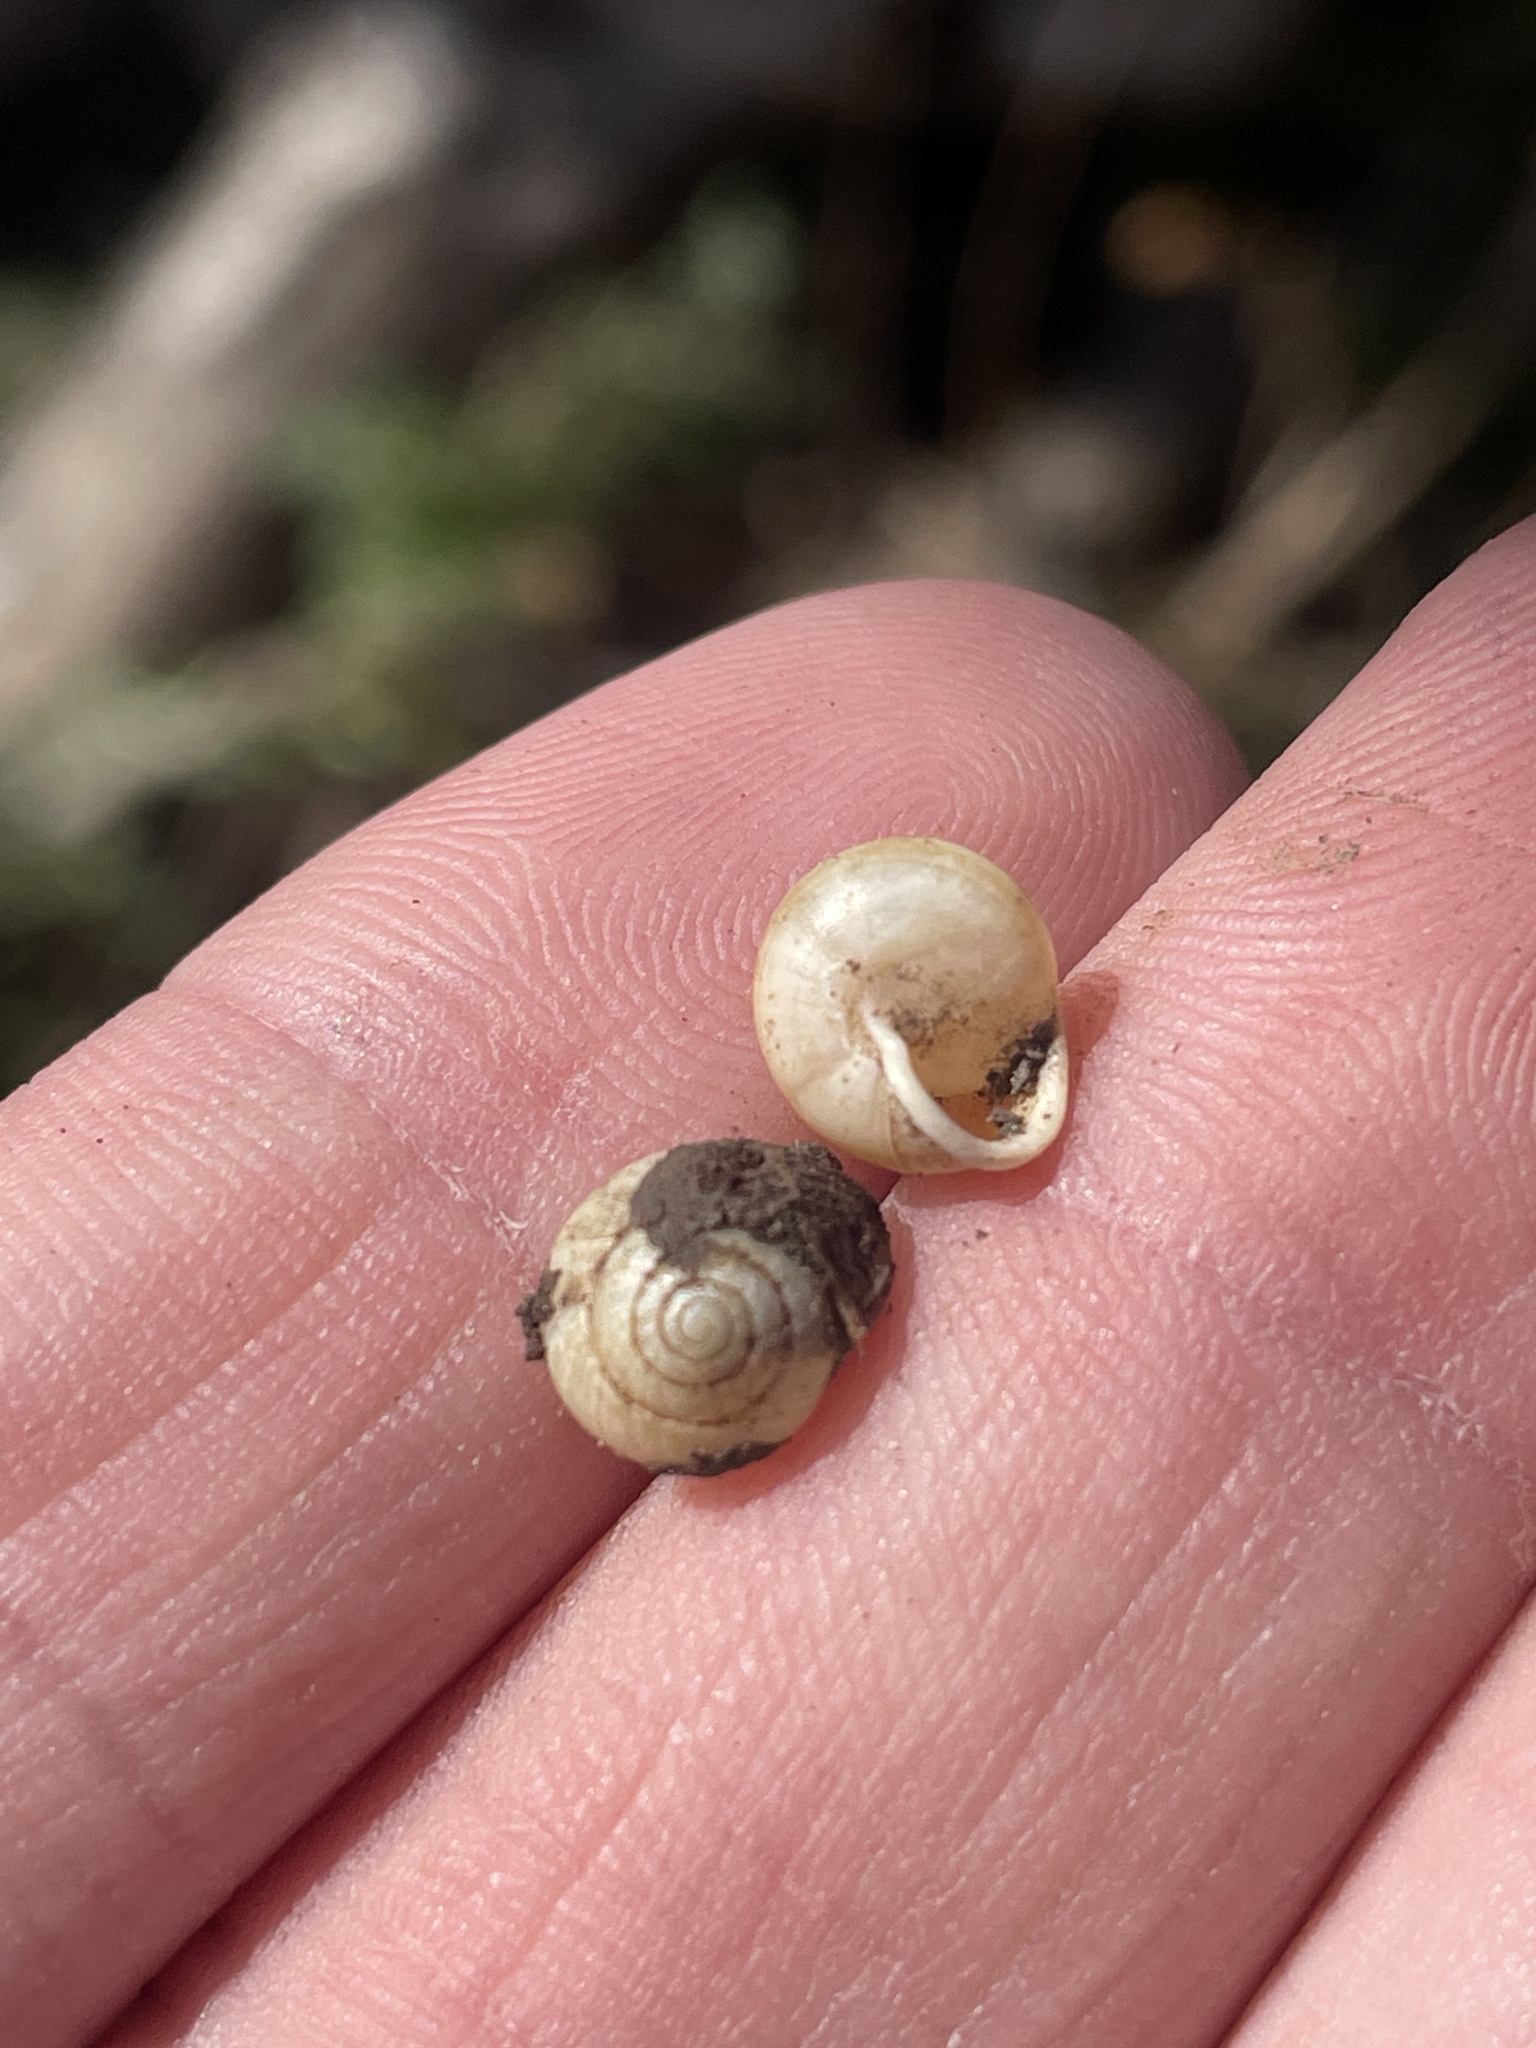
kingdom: Animalia
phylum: Mollusca
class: Gastropoda
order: Cycloneritida
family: Helicinidae
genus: Helicina
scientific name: Helicina orbiculata
